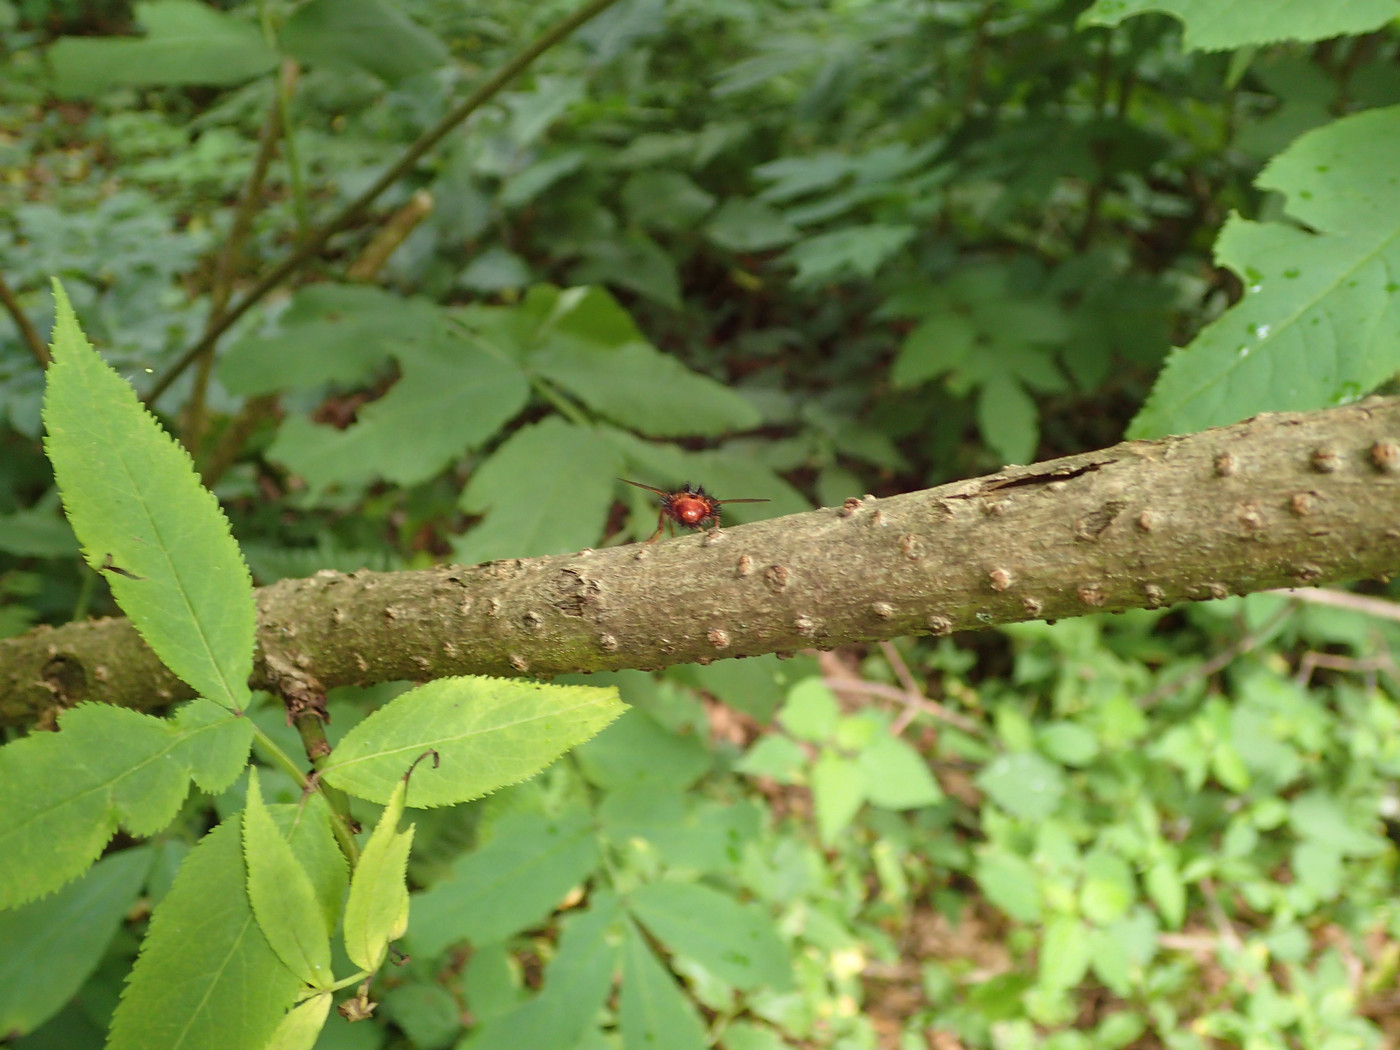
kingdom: Animalia
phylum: Arthropoda
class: Insecta
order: Diptera
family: Tachinidae
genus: Hystricia
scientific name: Hystricia abrupta
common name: Tomato bristle fly
